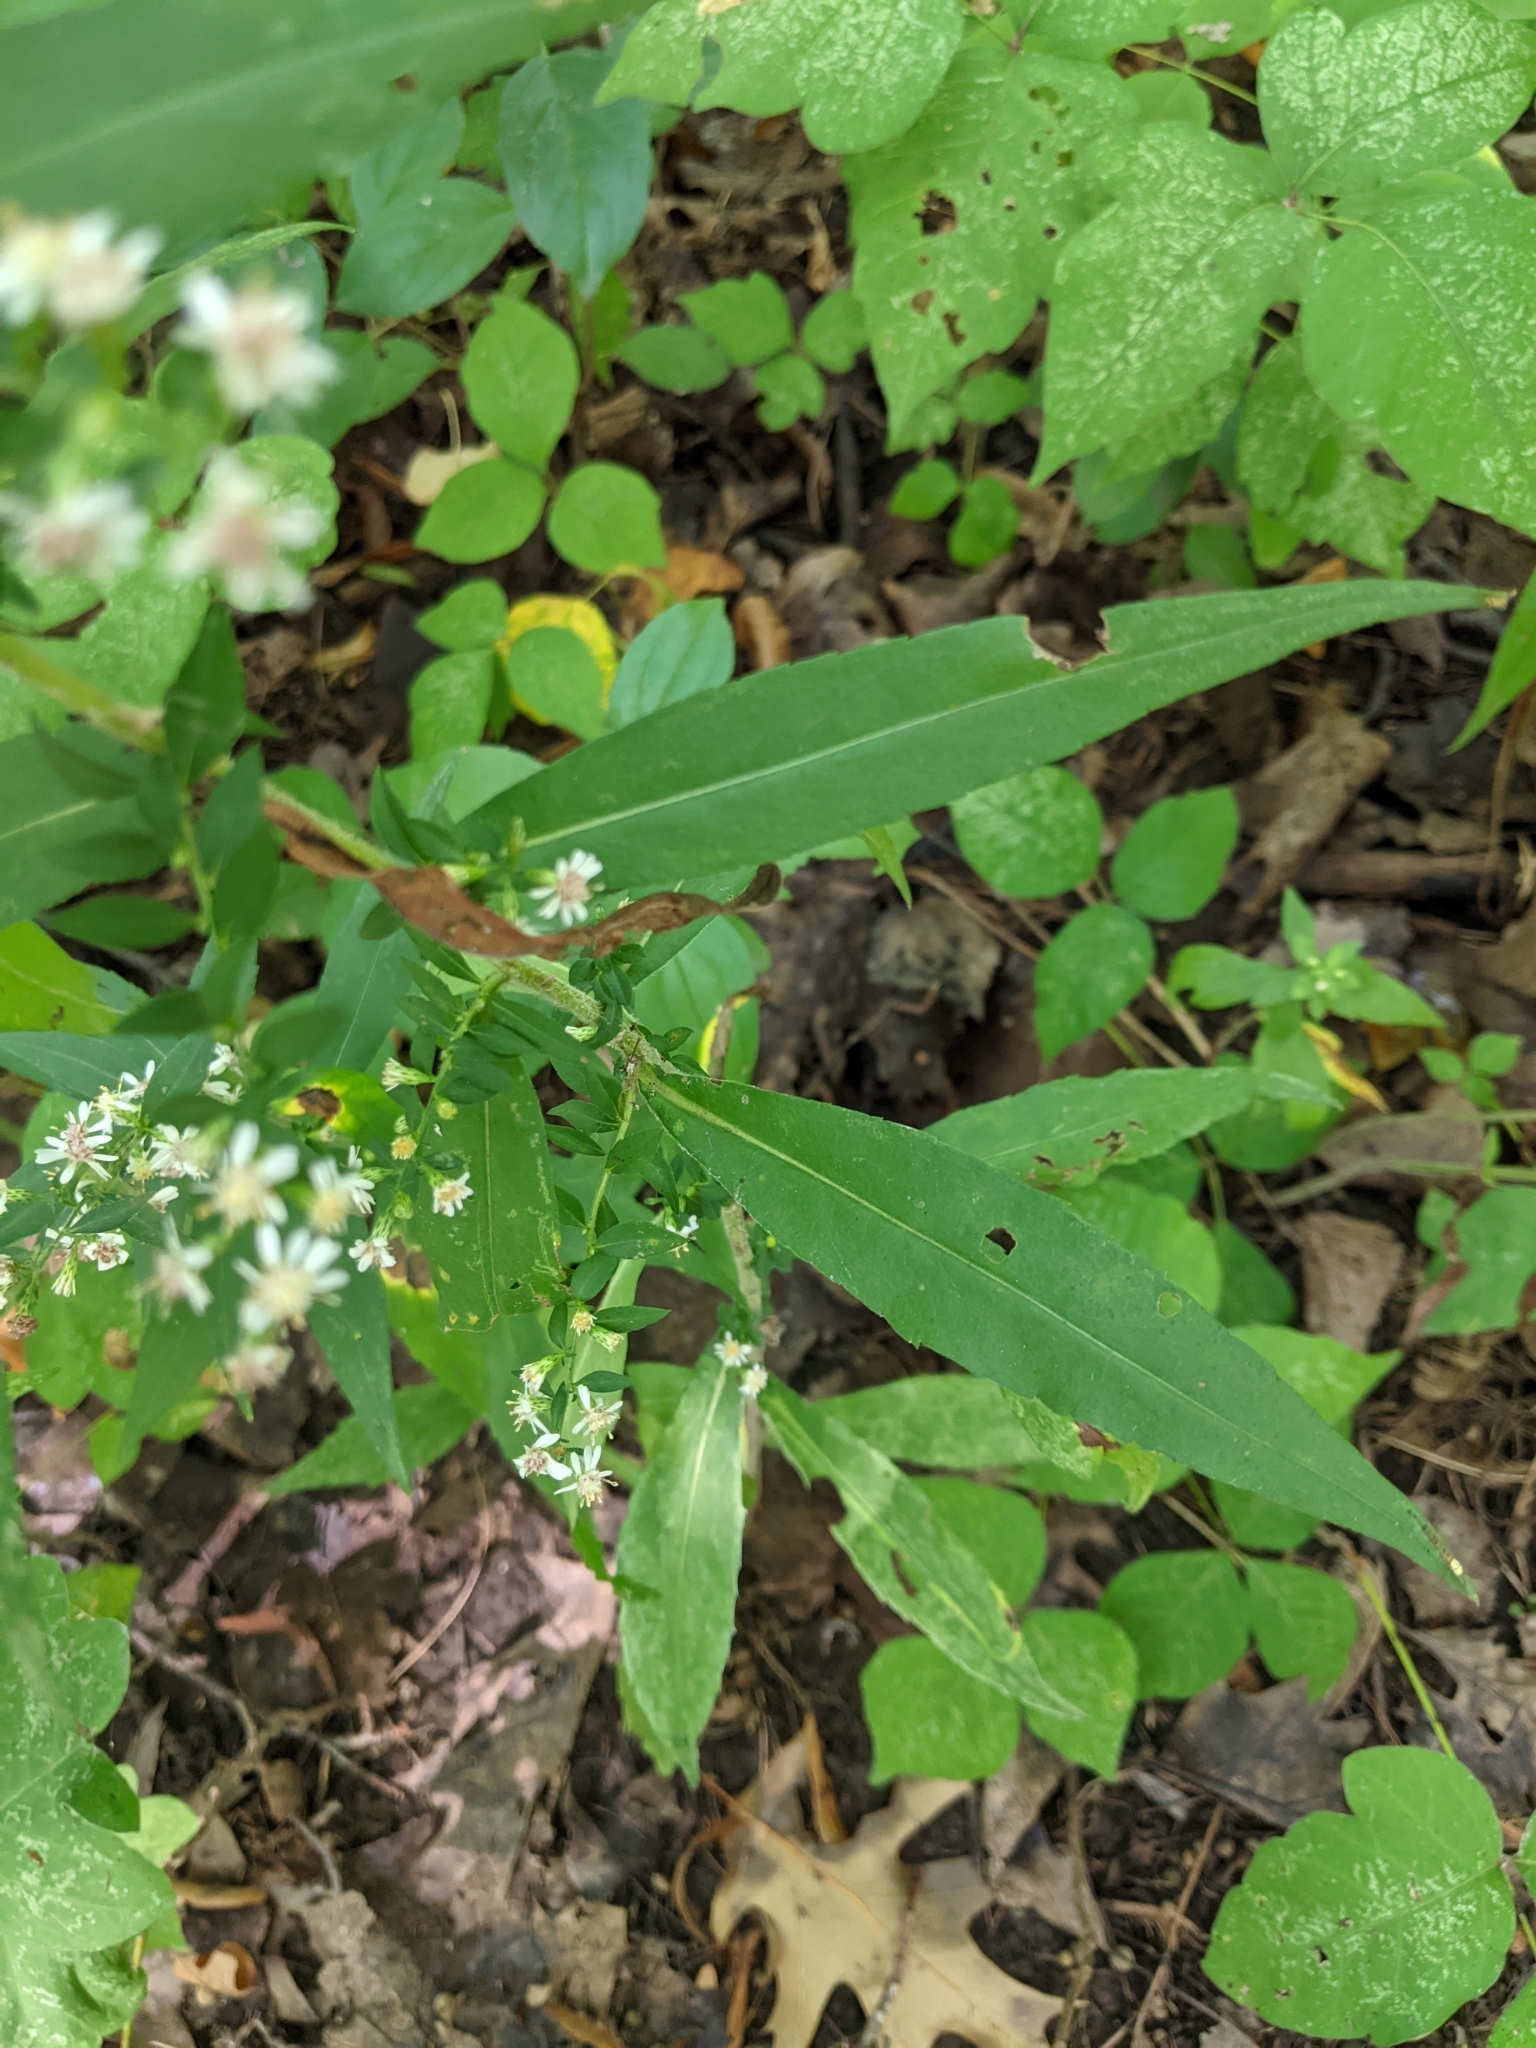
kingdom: Plantae
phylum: Tracheophyta
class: Magnoliopsida
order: Asterales
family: Asteraceae
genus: Symphyotrichum
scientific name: Symphyotrichum lateriflorum
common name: Calico aster
